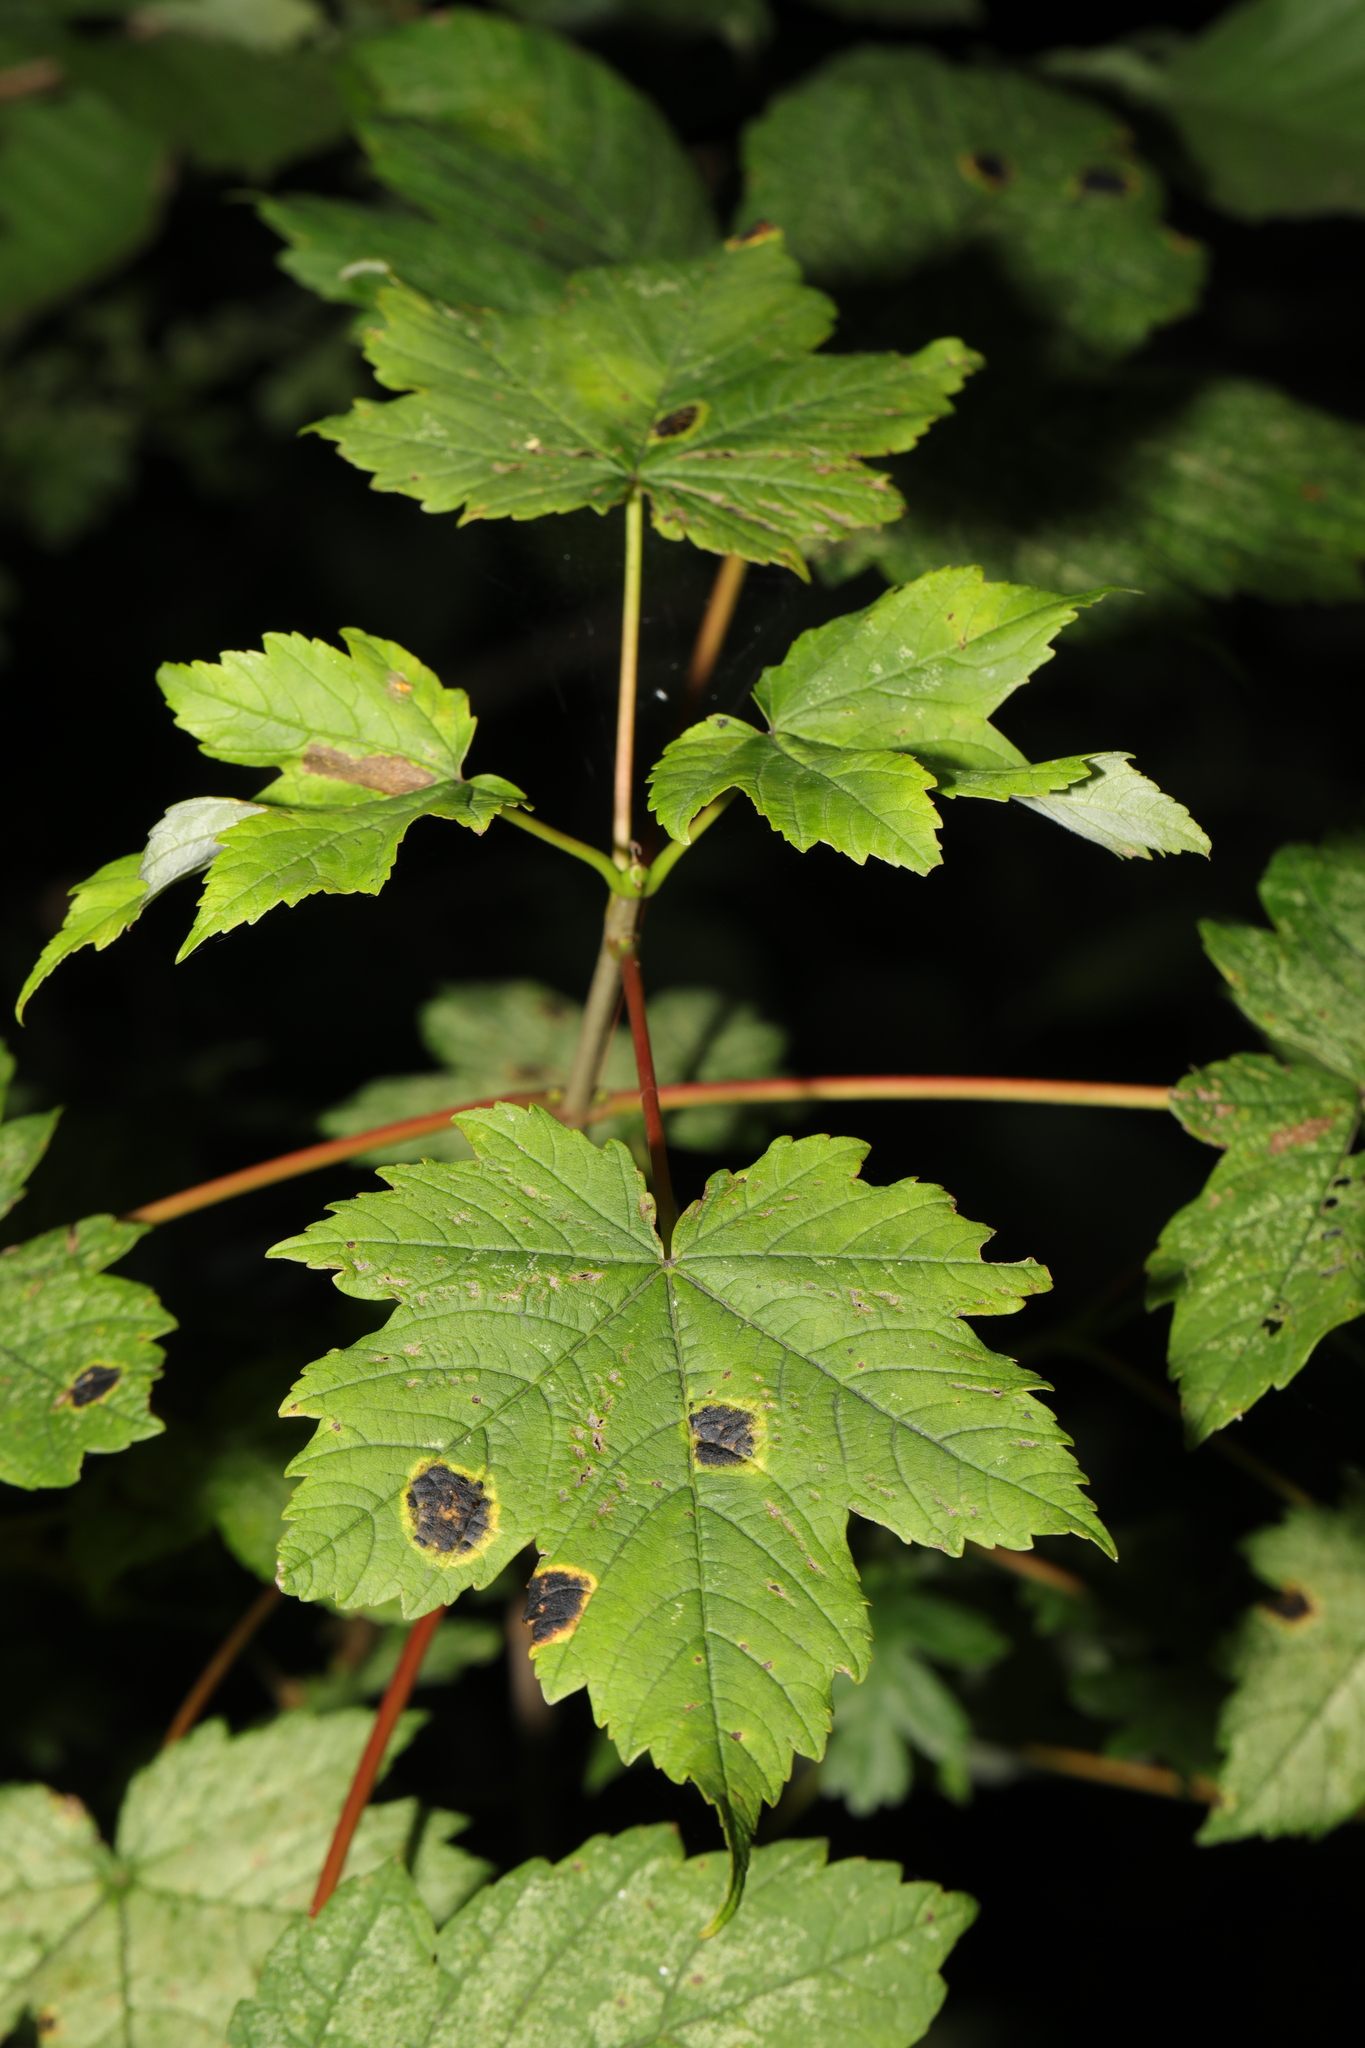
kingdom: Plantae
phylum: Tracheophyta
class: Magnoliopsida
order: Sapindales
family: Sapindaceae
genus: Acer
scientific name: Acer pseudoplatanus
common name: Sycamore
